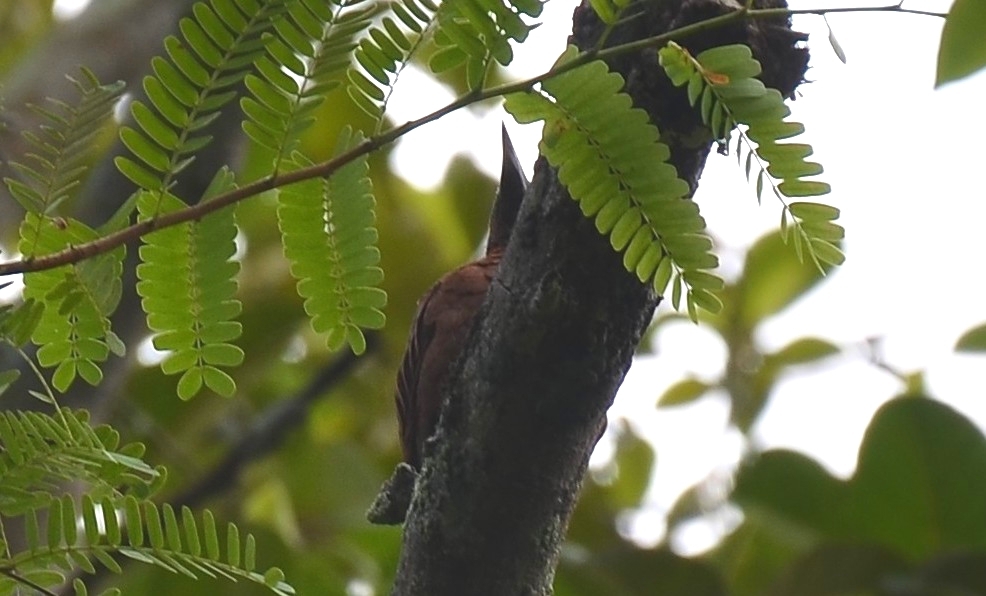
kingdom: Animalia
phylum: Chordata
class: Aves
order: Piciformes
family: Picidae
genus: Micropternus
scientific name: Micropternus brachyurus
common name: Rufous woodpecker
